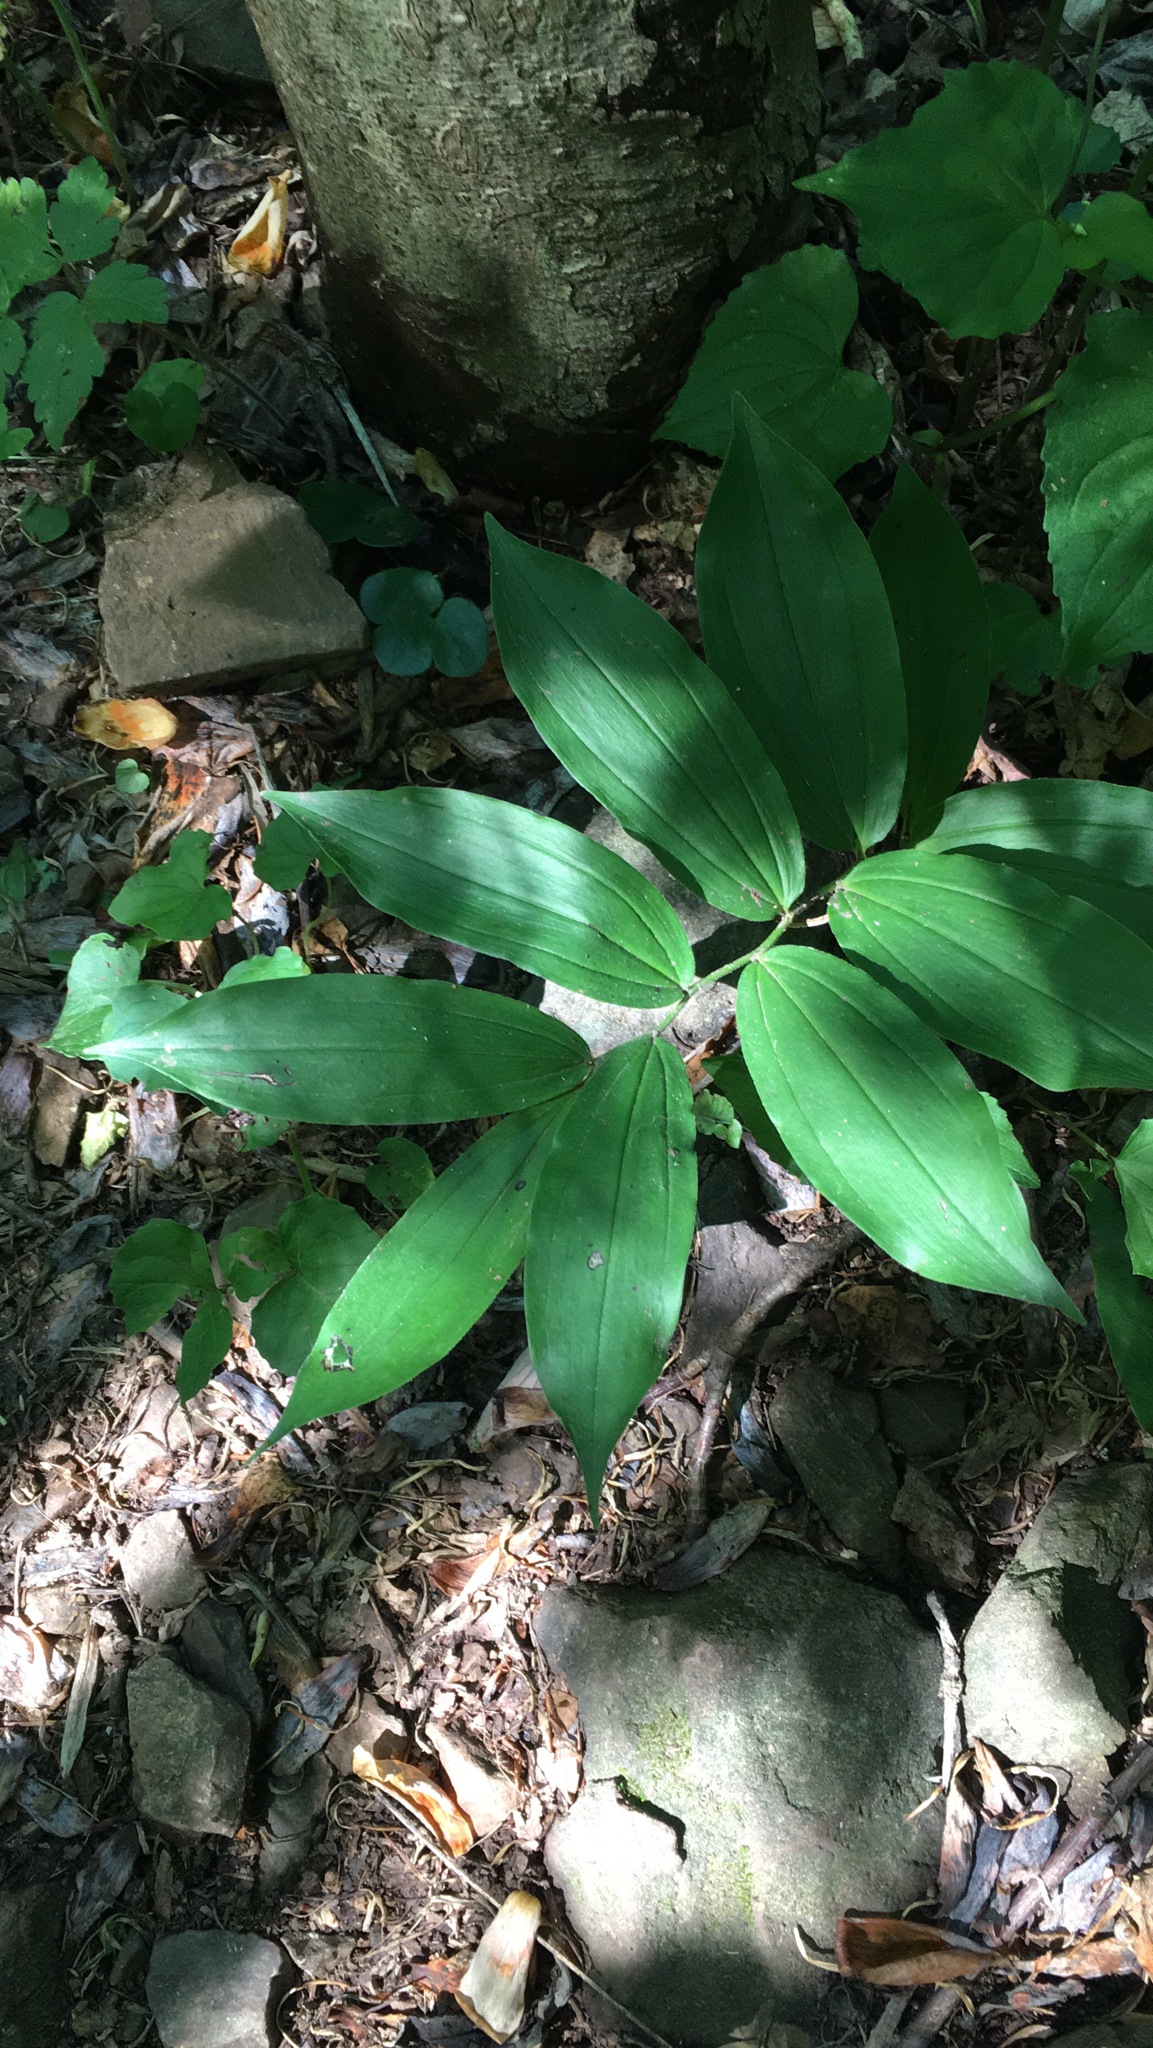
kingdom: Plantae
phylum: Tracheophyta
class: Liliopsida
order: Asparagales
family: Asparagaceae
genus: Maianthemum
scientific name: Maianthemum racemosum
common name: False spikenard
